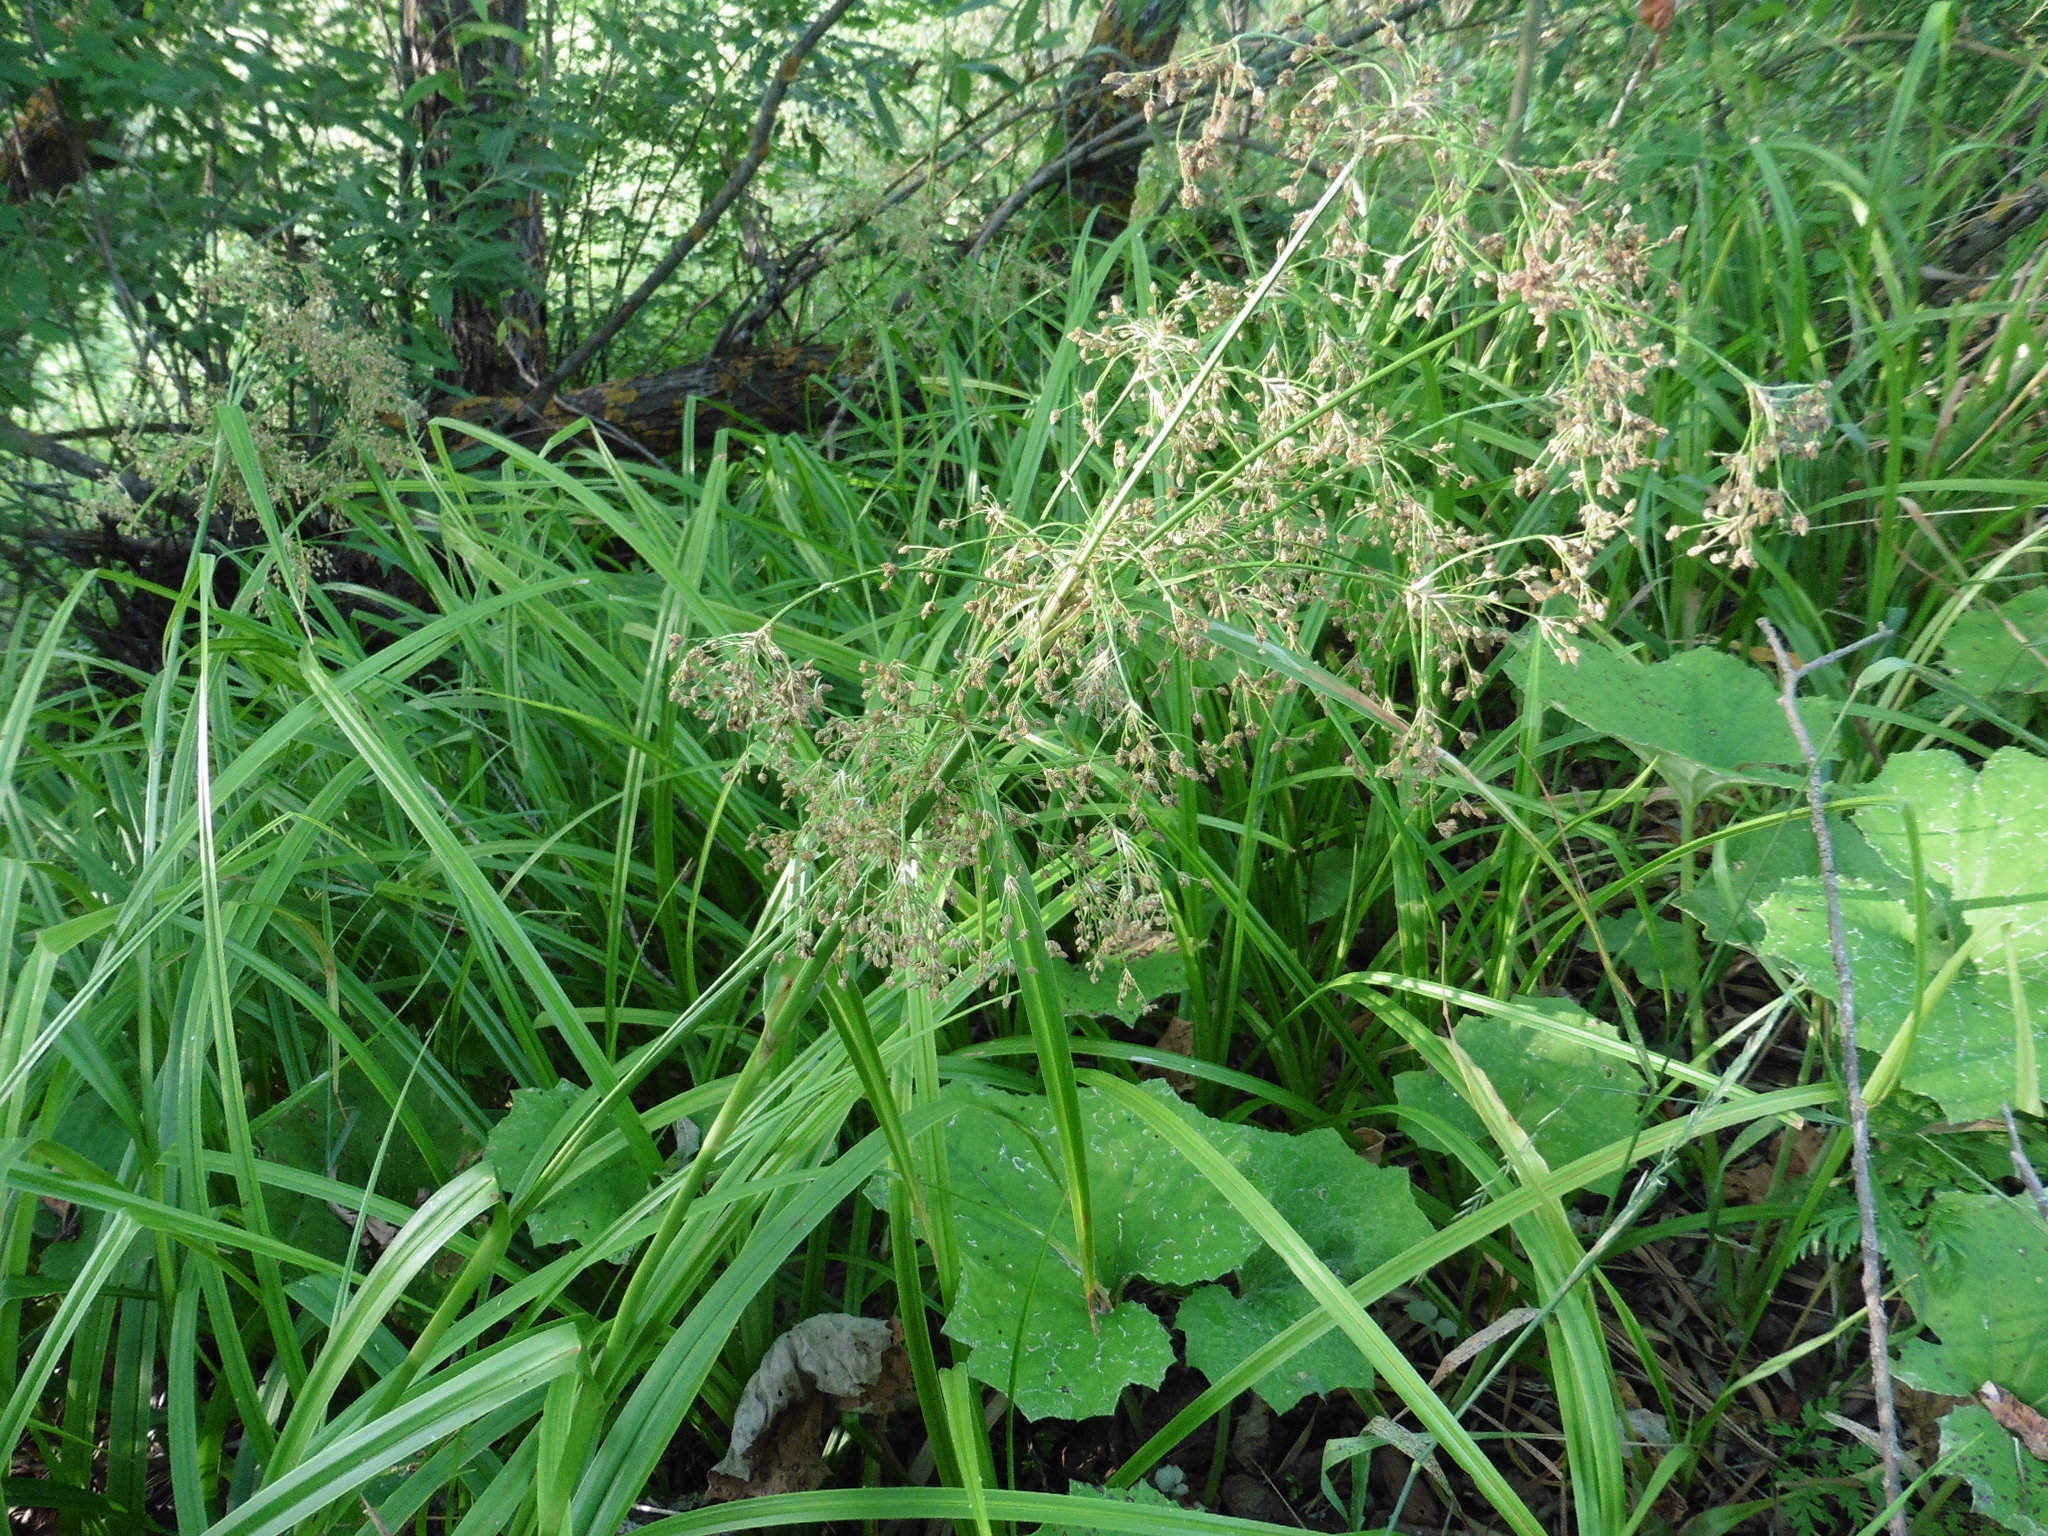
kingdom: Plantae
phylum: Tracheophyta
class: Liliopsida
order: Poales
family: Cyperaceae
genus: Scirpus
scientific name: Scirpus sylvaticus
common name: Wood club-rush
